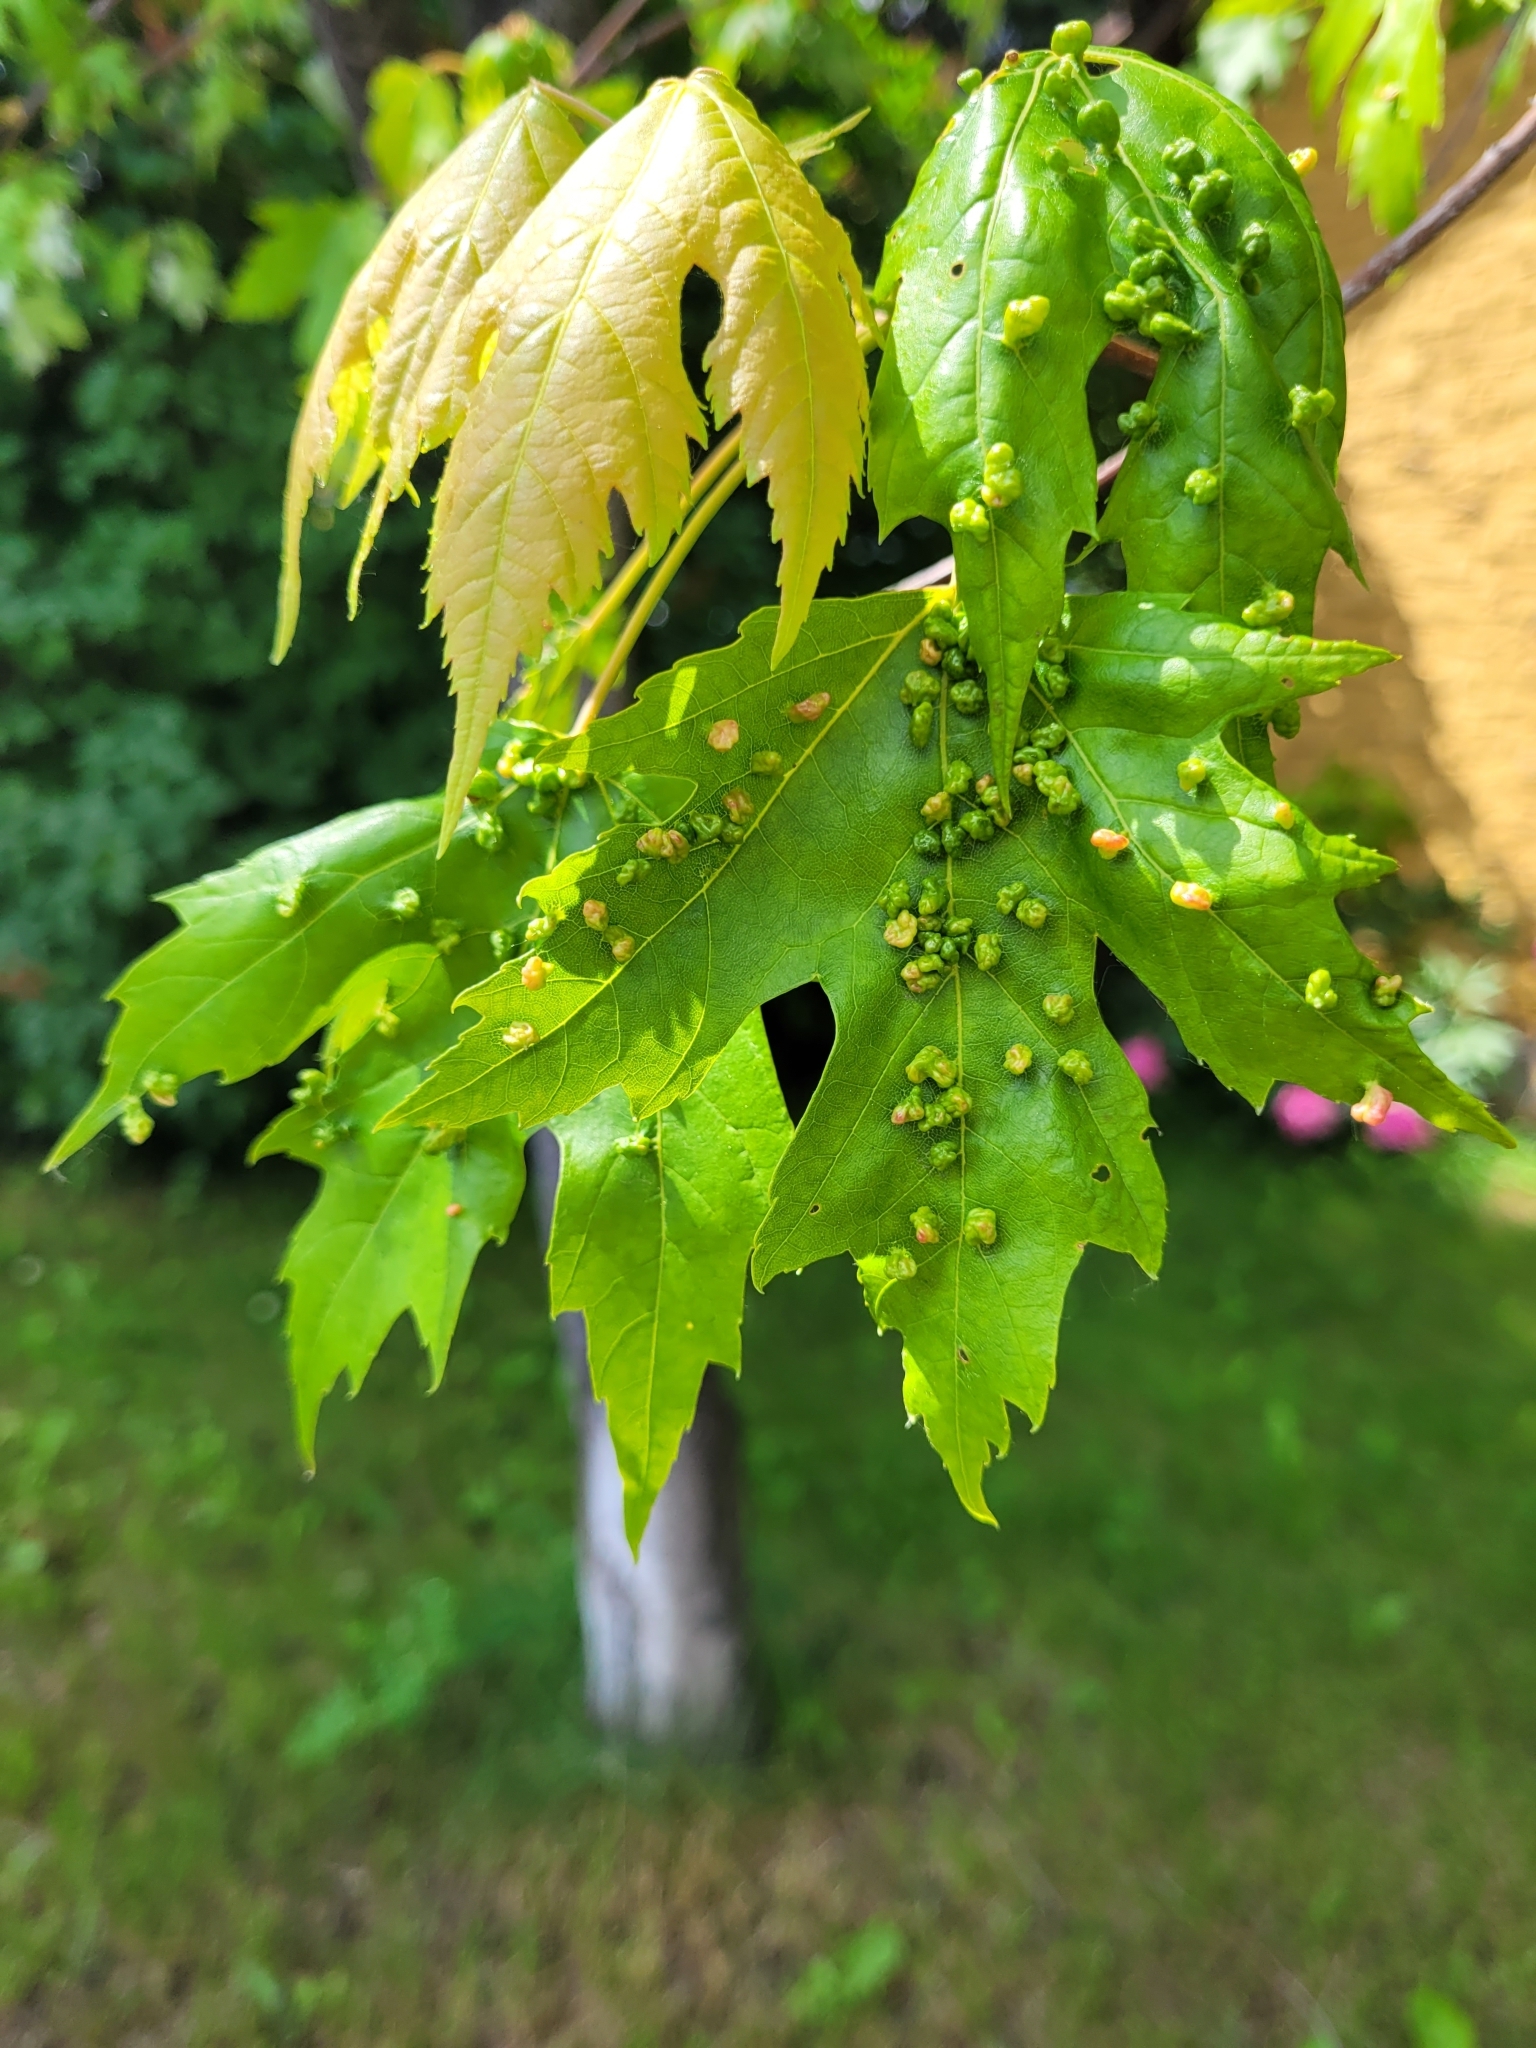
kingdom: Animalia
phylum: Arthropoda
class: Arachnida
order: Trombidiformes
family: Eriophyidae
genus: Vasates
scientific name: Vasates quadripedes
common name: Maple bladder gall mite
